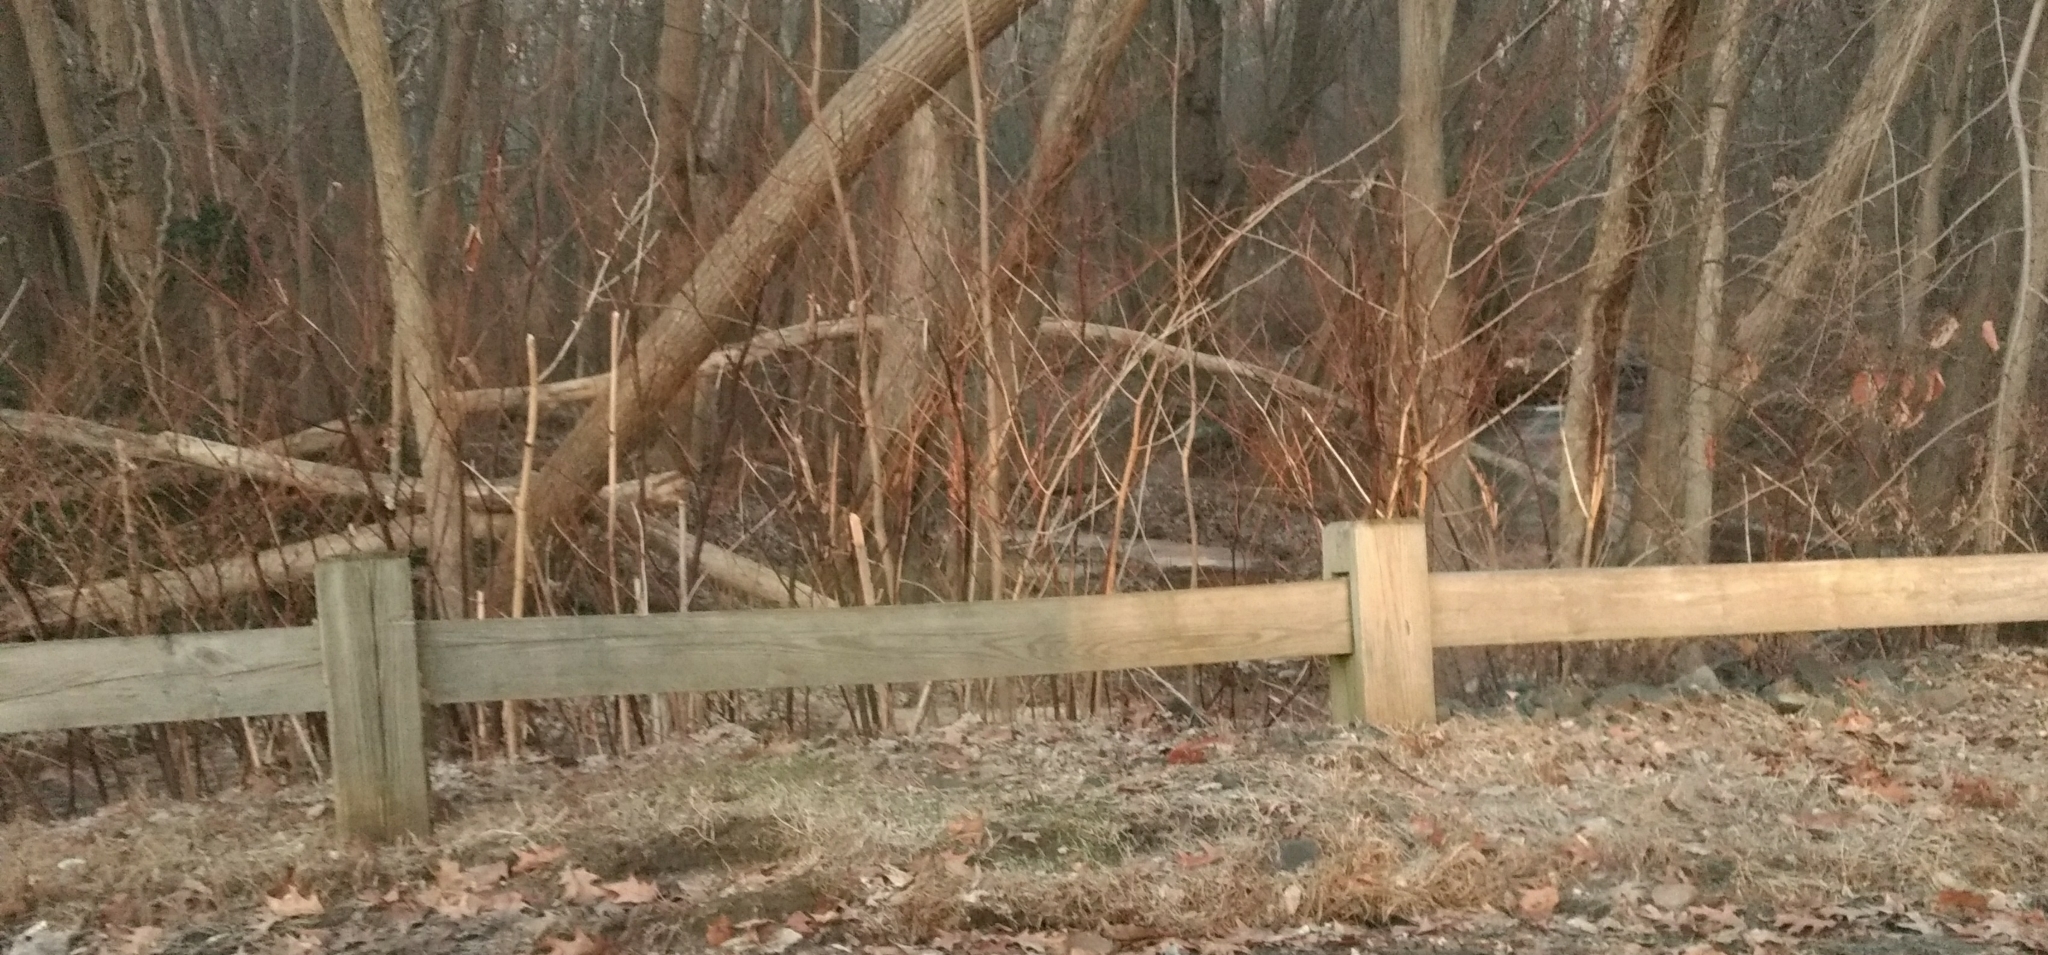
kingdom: Plantae
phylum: Tracheophyta
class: Magnoliopsida
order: Caryophyllales
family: Polygonaceae
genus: Reynoutria
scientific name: Reynoutria japonica
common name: Japanese knotweed
